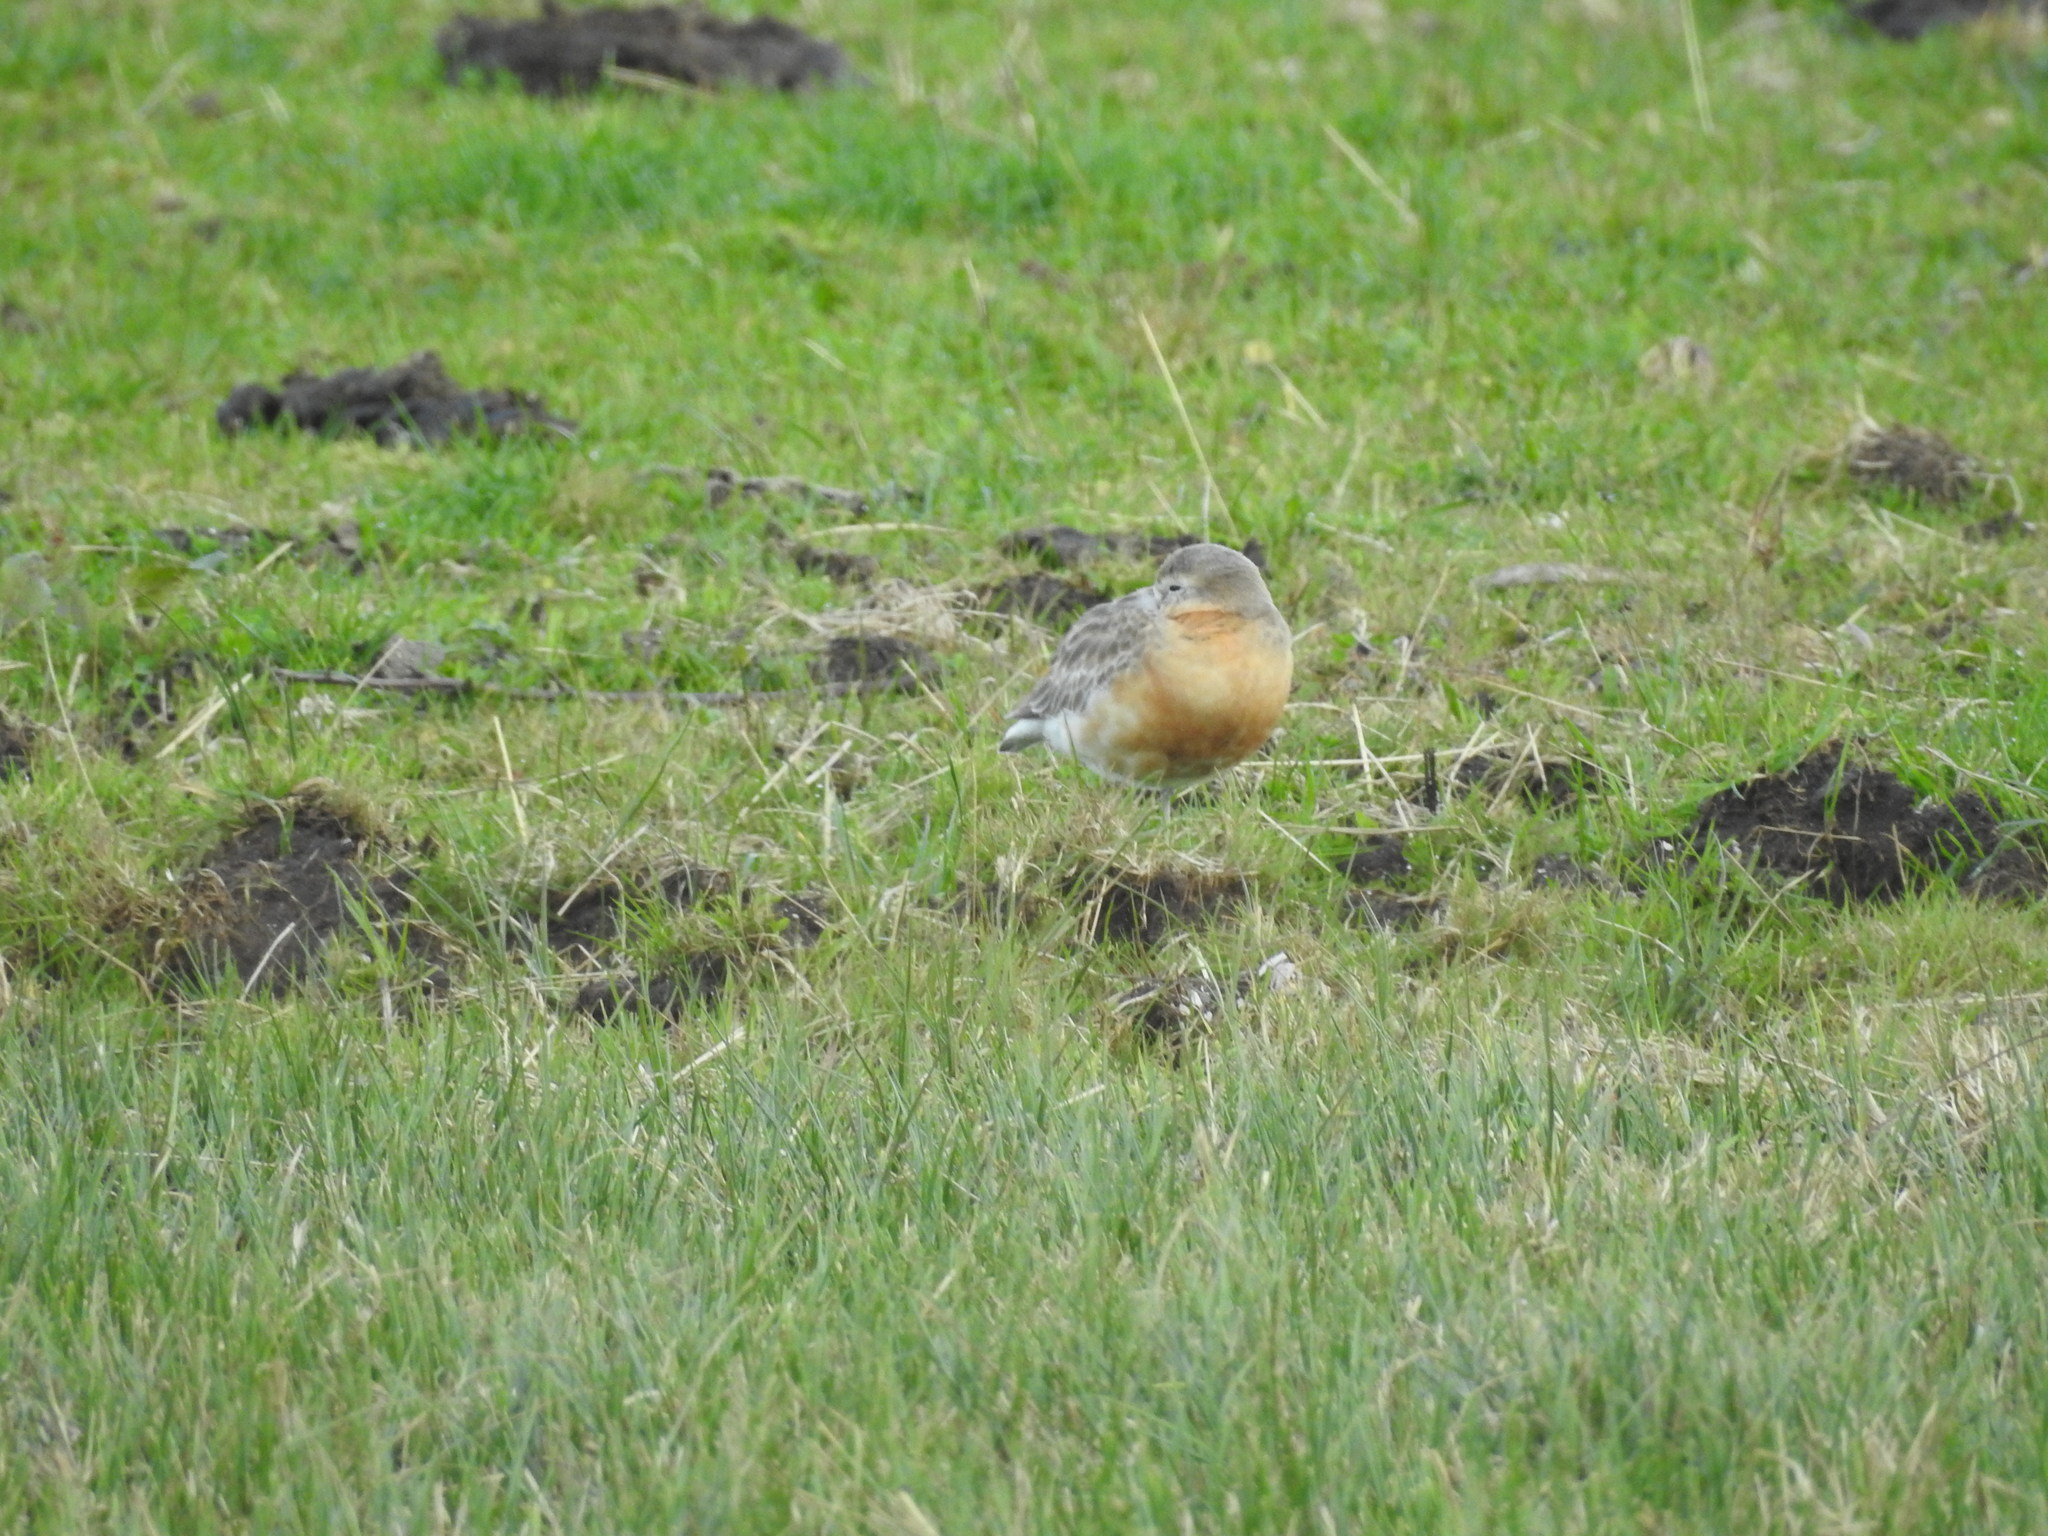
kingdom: Animalia
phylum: Chordata
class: Aves
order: Charadriiformes
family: Charadriidae
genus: Anarhynchus
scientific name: Anarhynchus
